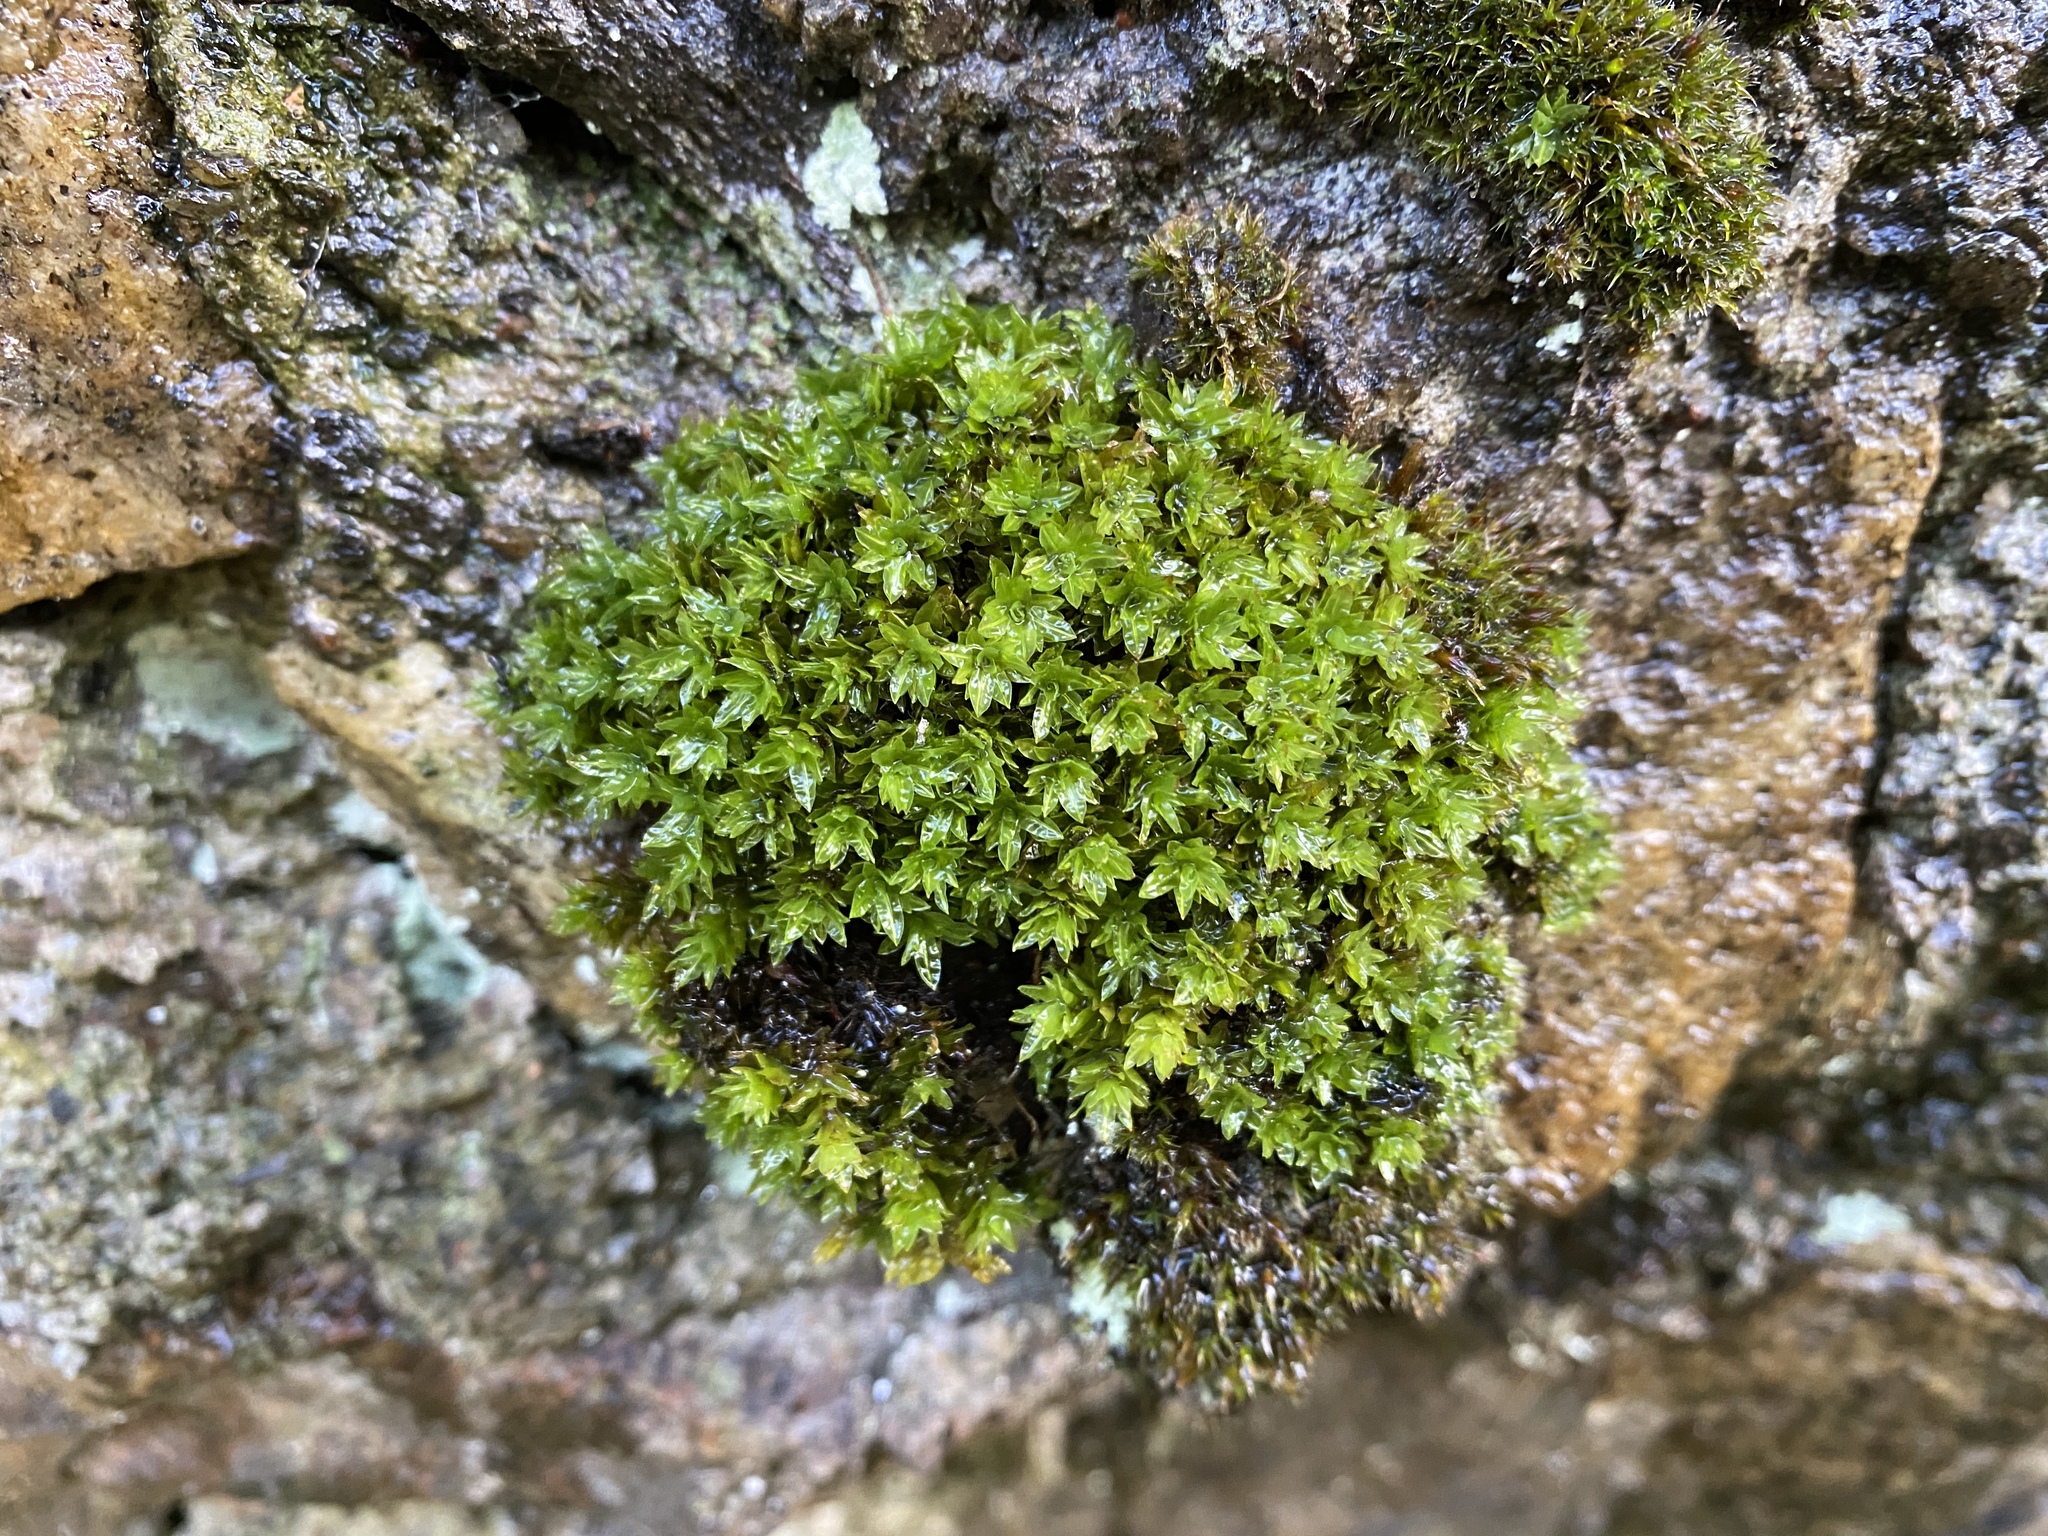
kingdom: Plantae
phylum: Bryophyta
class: Bryopsida
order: Encalyptales
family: Encalyptaceae
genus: Encalypta
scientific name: Encalypta streptocarpa
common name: Spiral extinguisher-moss
